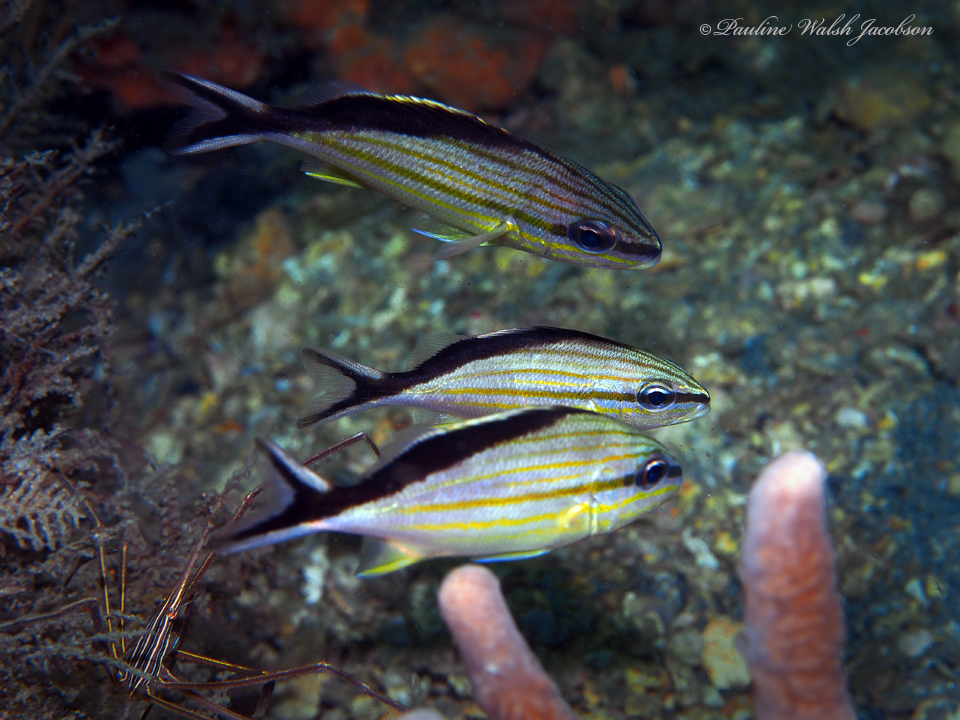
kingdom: Animalia
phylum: Chordata
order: Perciformes
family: Haemulidae
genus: Haemulon
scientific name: Haemulon melanurum
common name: Cottonwick
